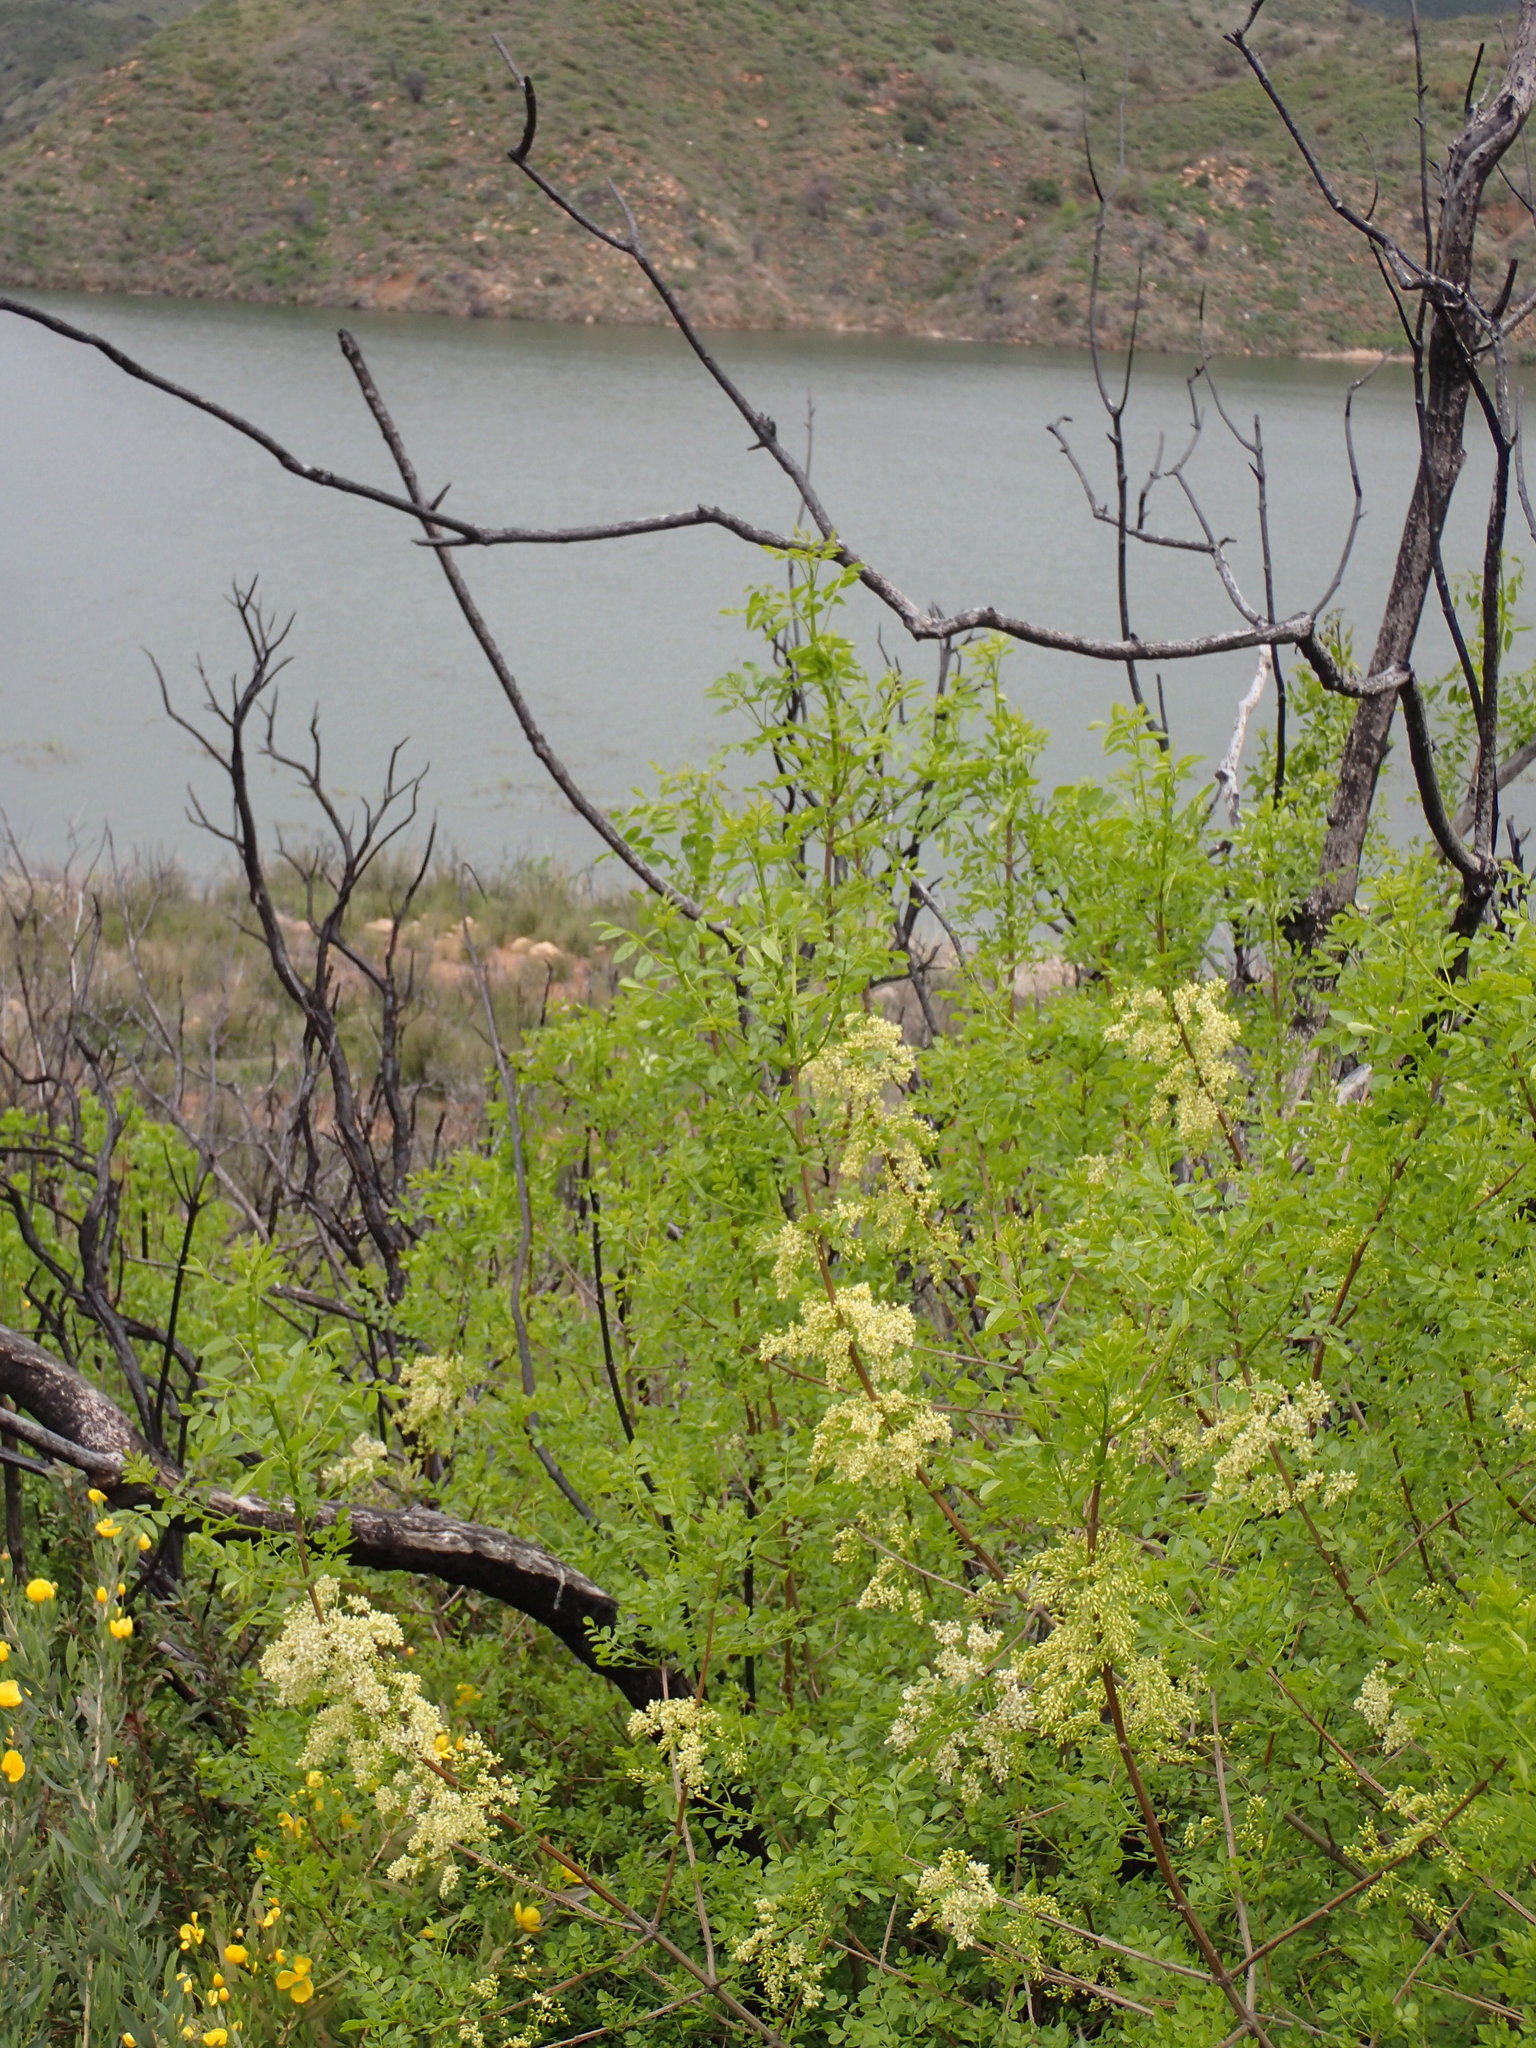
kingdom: Plantae
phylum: Tracheophyta
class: Magnoliopsida
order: Lamiales
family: Oleaceae
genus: Fraxinus
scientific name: Fraxinus dipetala
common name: California ash
